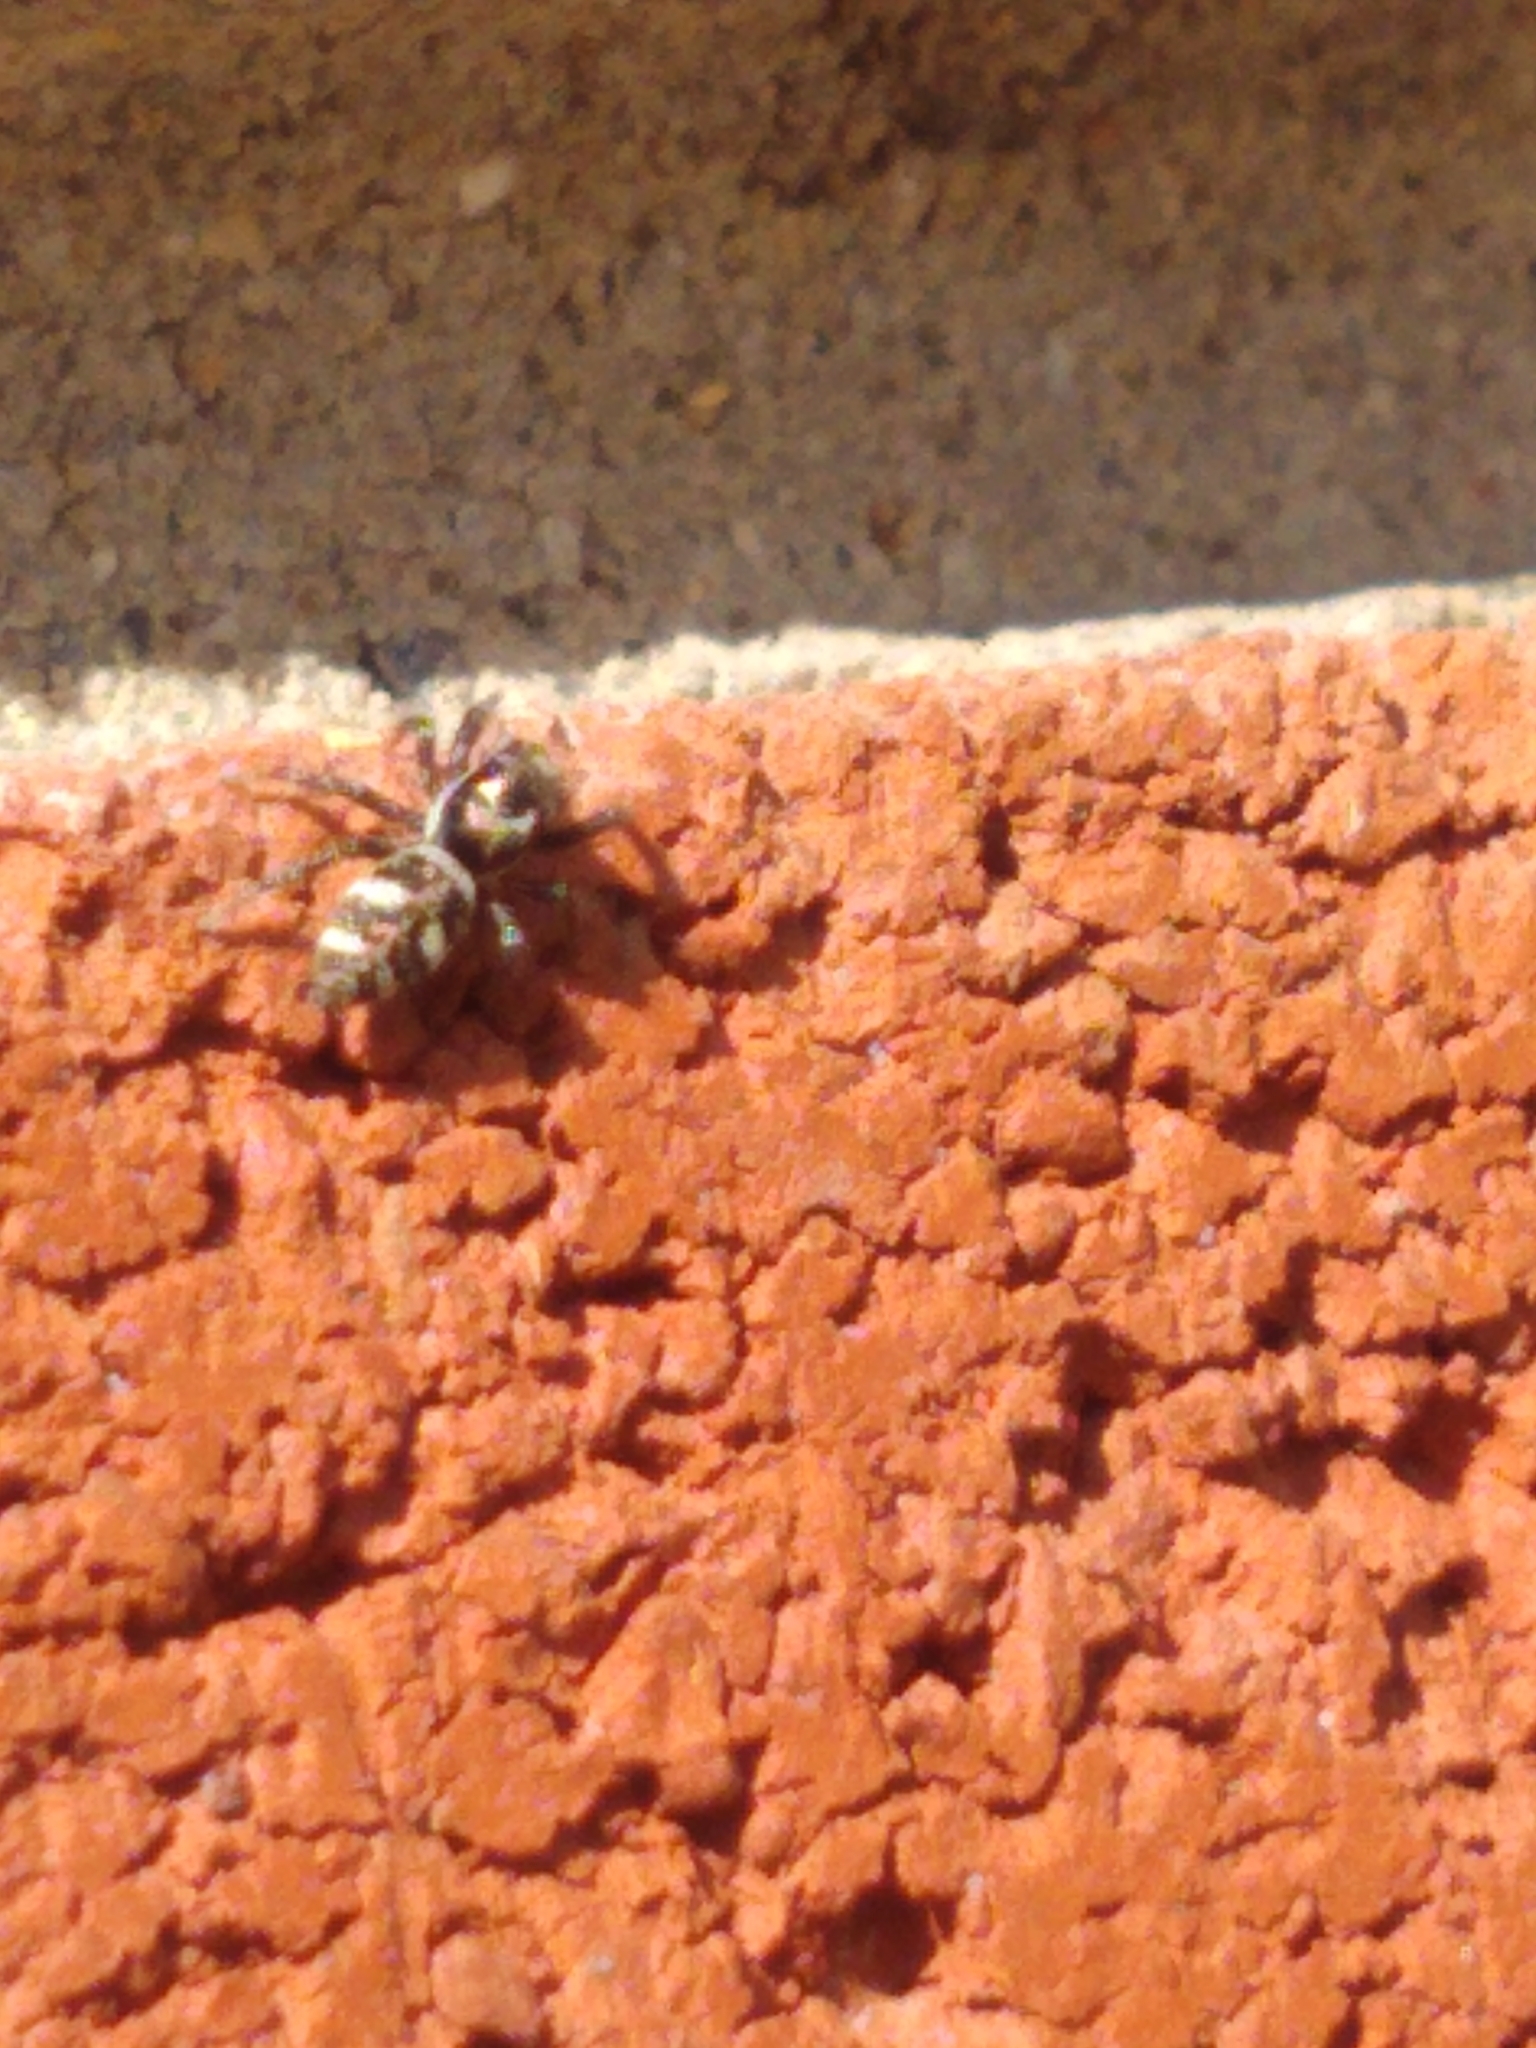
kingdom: Animalia
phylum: Arthropoda
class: Arachnida
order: Araneae
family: Salticidae
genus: Salticus
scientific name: Salticus scenicus
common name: Zebra jumper
